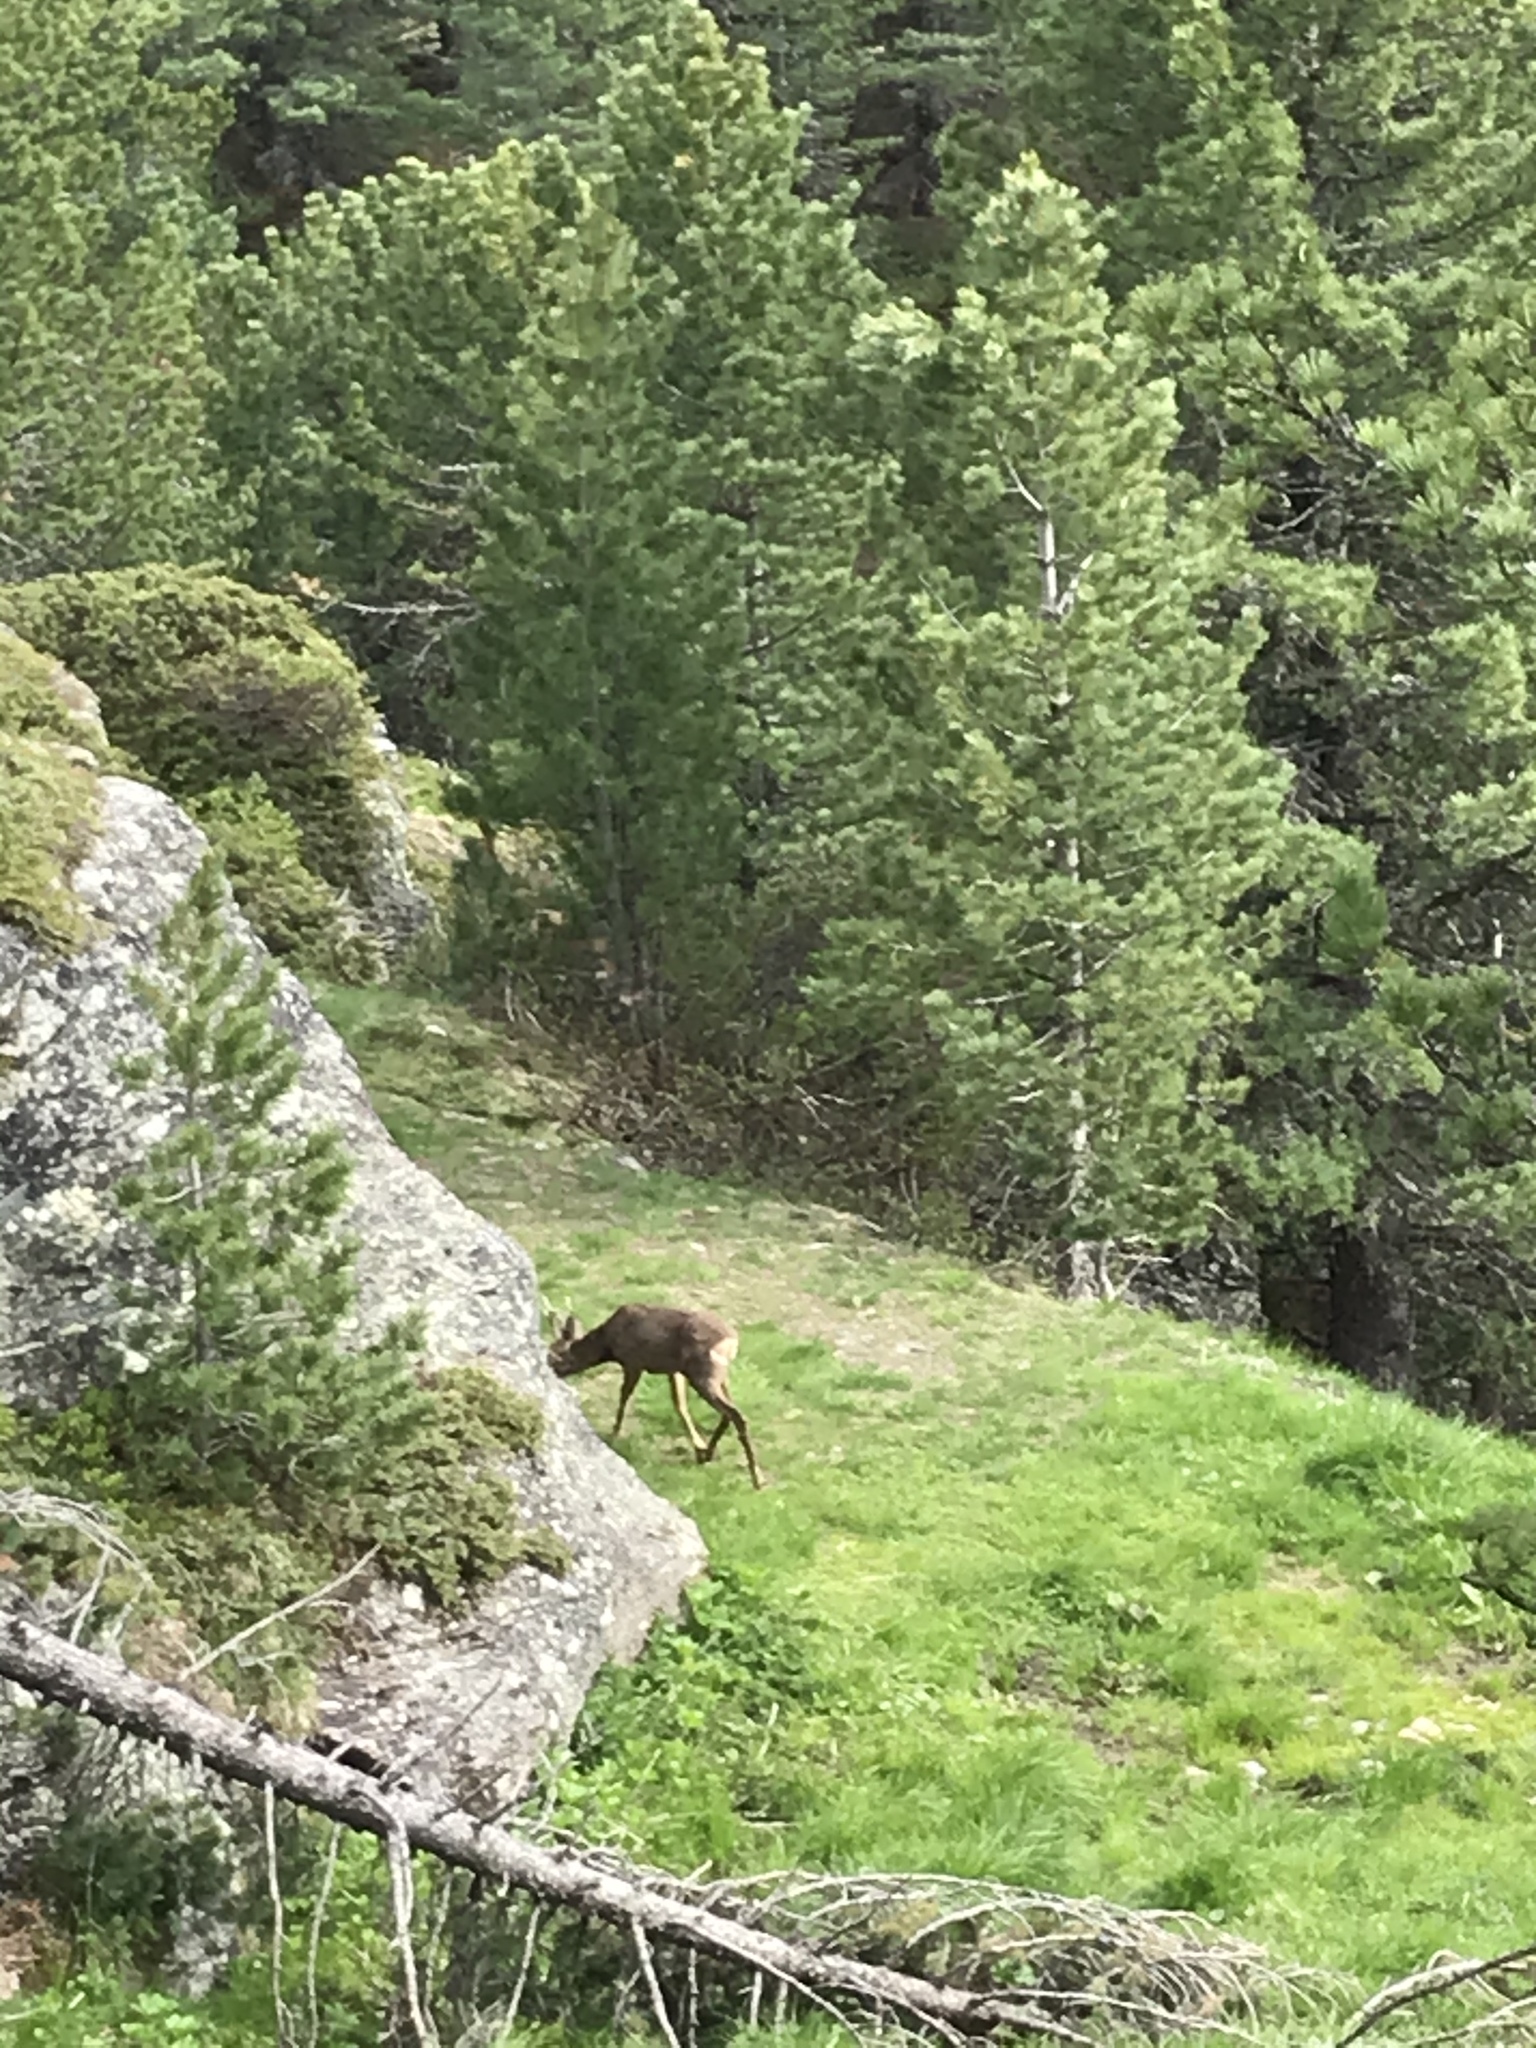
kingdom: Animalia
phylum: Chordata
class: Mammalia
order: Artiodactyla
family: Cervidae
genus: Capreolus
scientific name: Capreolus capreolus
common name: Western roe deer
